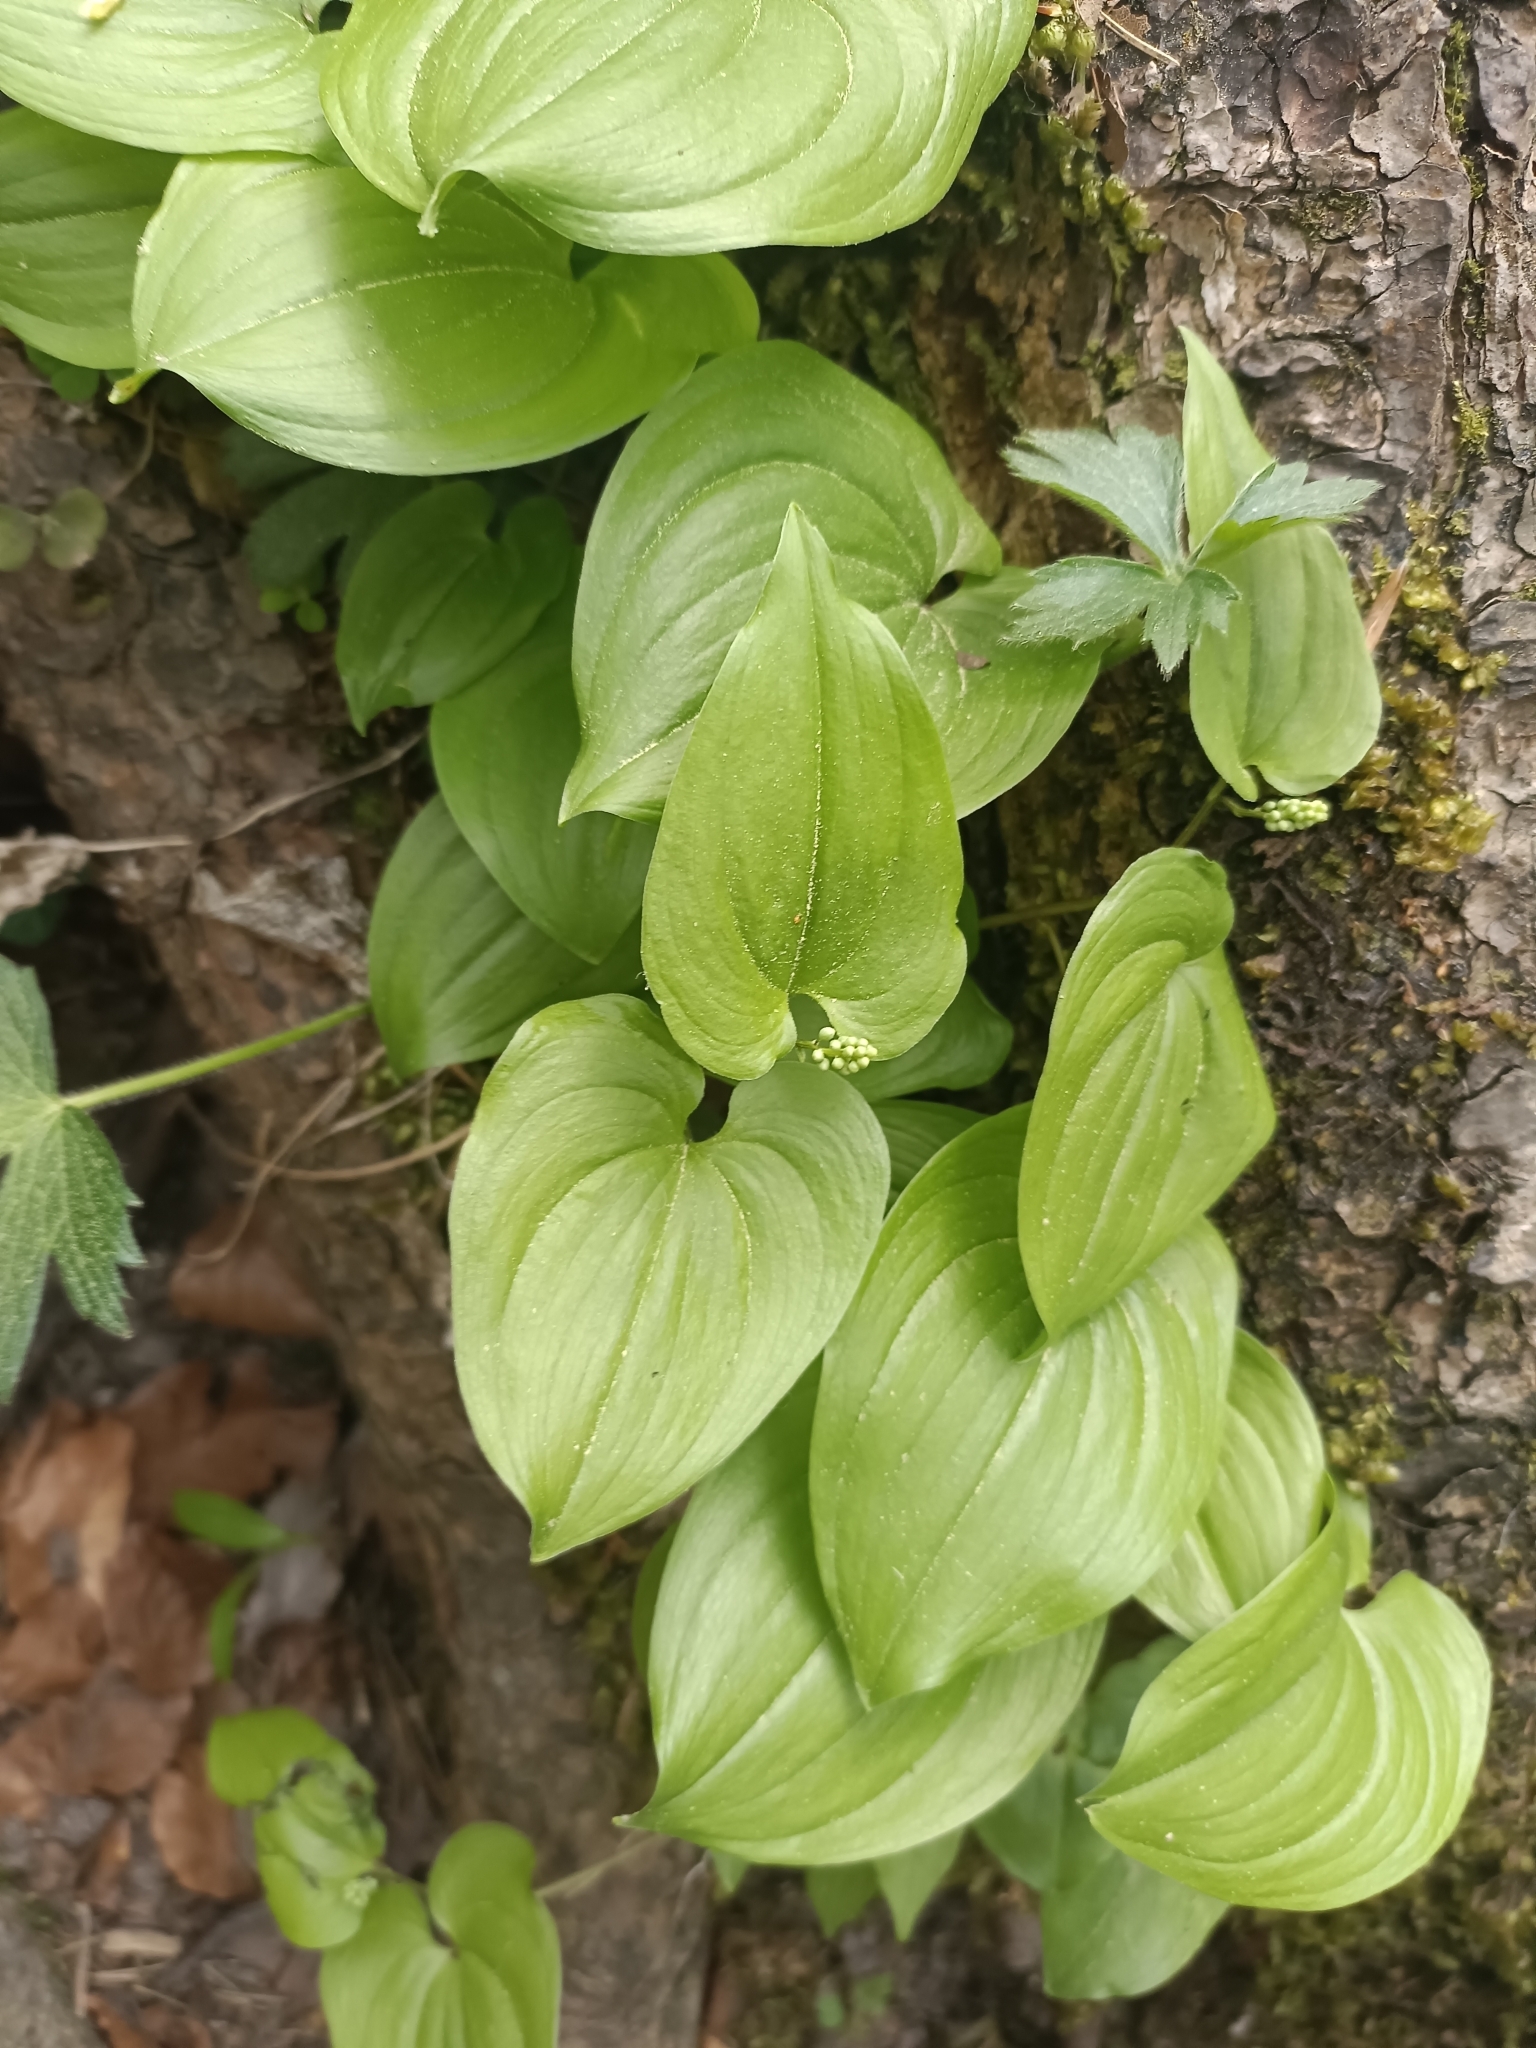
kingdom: Plantae
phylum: Tracheophyta
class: Liliopsida
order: Asparagales
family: Asparagaceae
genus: Maianthemum
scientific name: Maianthemum bifolium
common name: May lily
